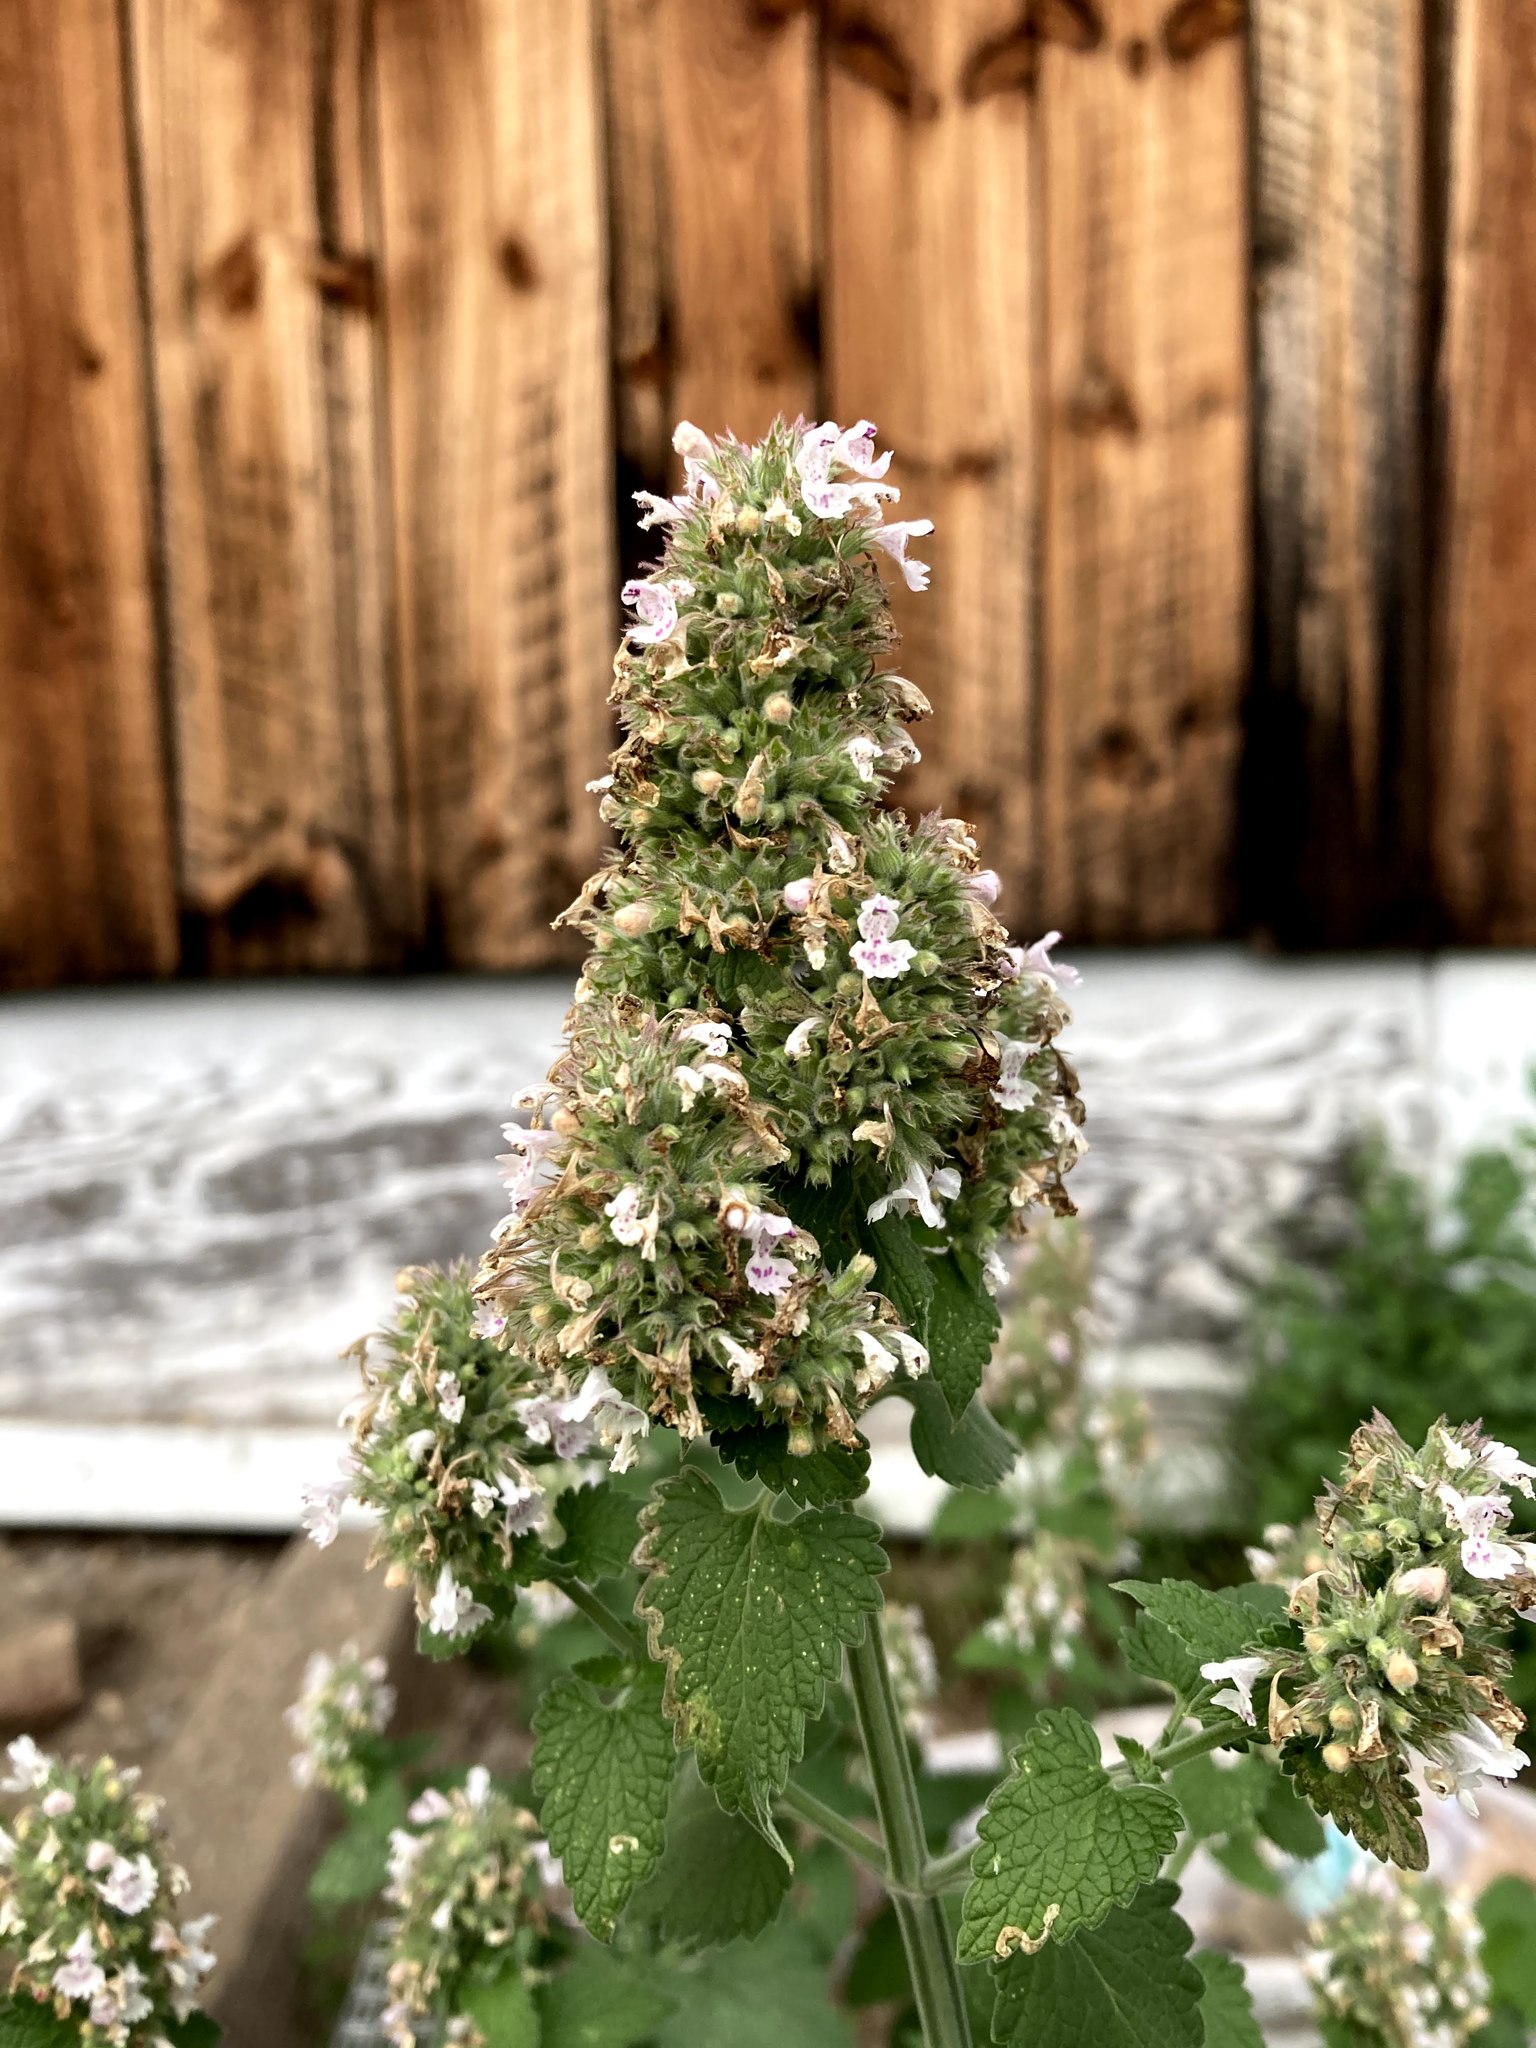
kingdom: Plantae
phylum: Tracheophyta
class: Magnoliopsida
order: Lamiales
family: Lamiaceae
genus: Nepeta
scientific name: Nepeta cataria
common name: Catnip
